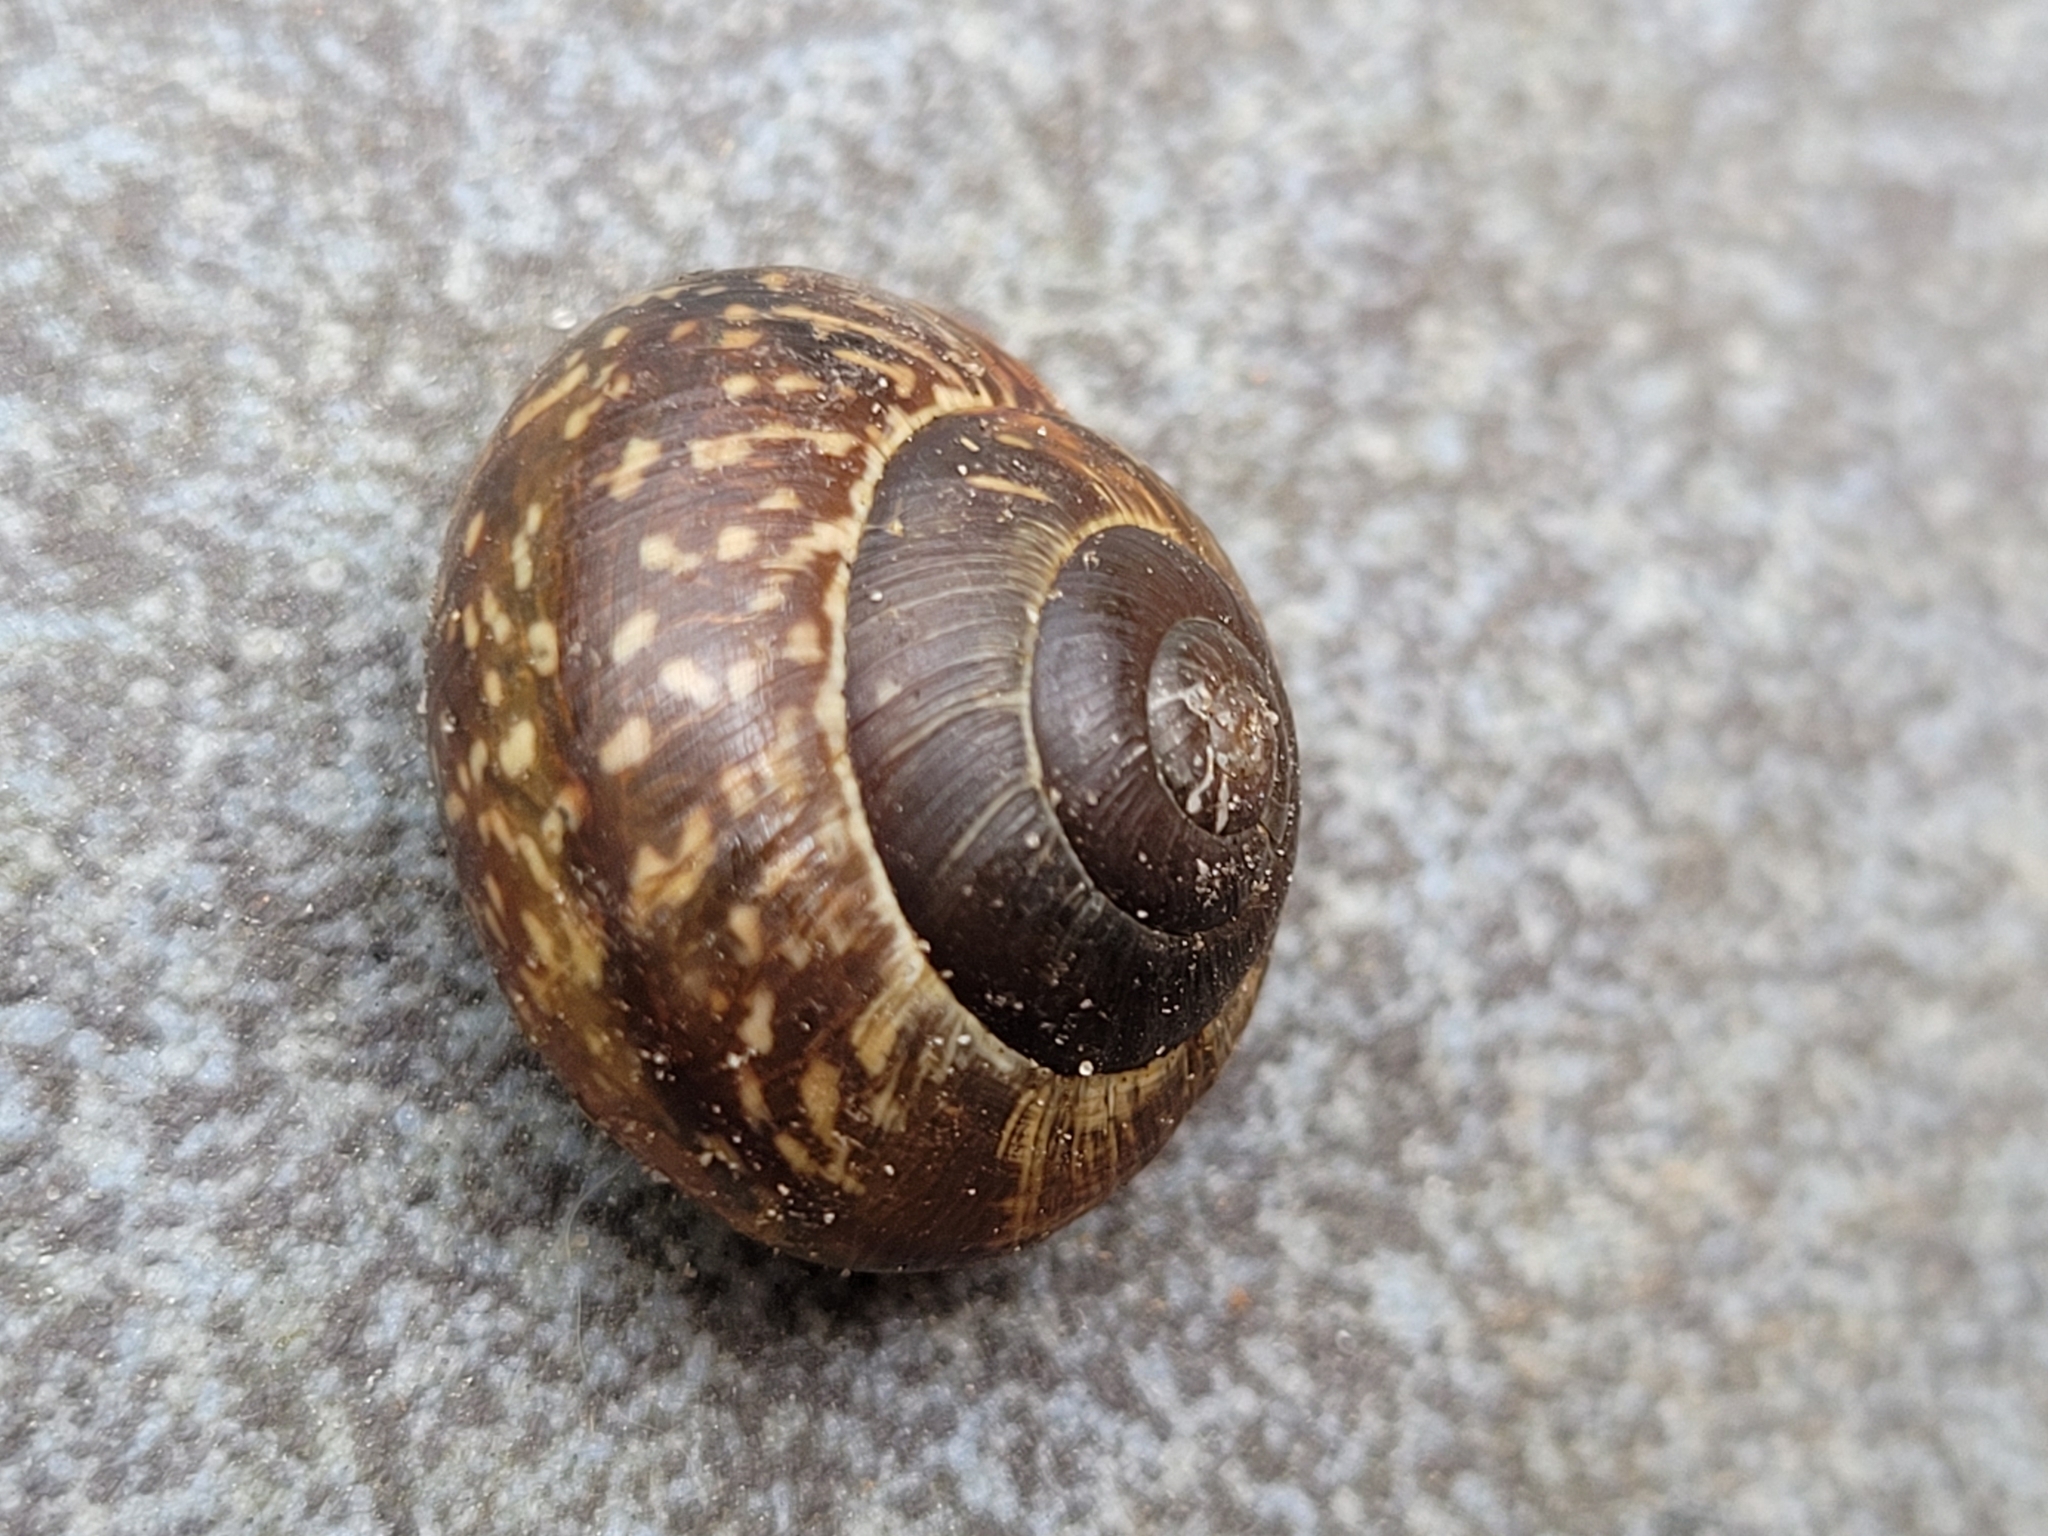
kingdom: Animalia
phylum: Mollusca
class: Gastropoda
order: Stylommatophora
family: Helicidae
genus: Arianta
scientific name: Arianta arbustorum
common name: Copse snail
